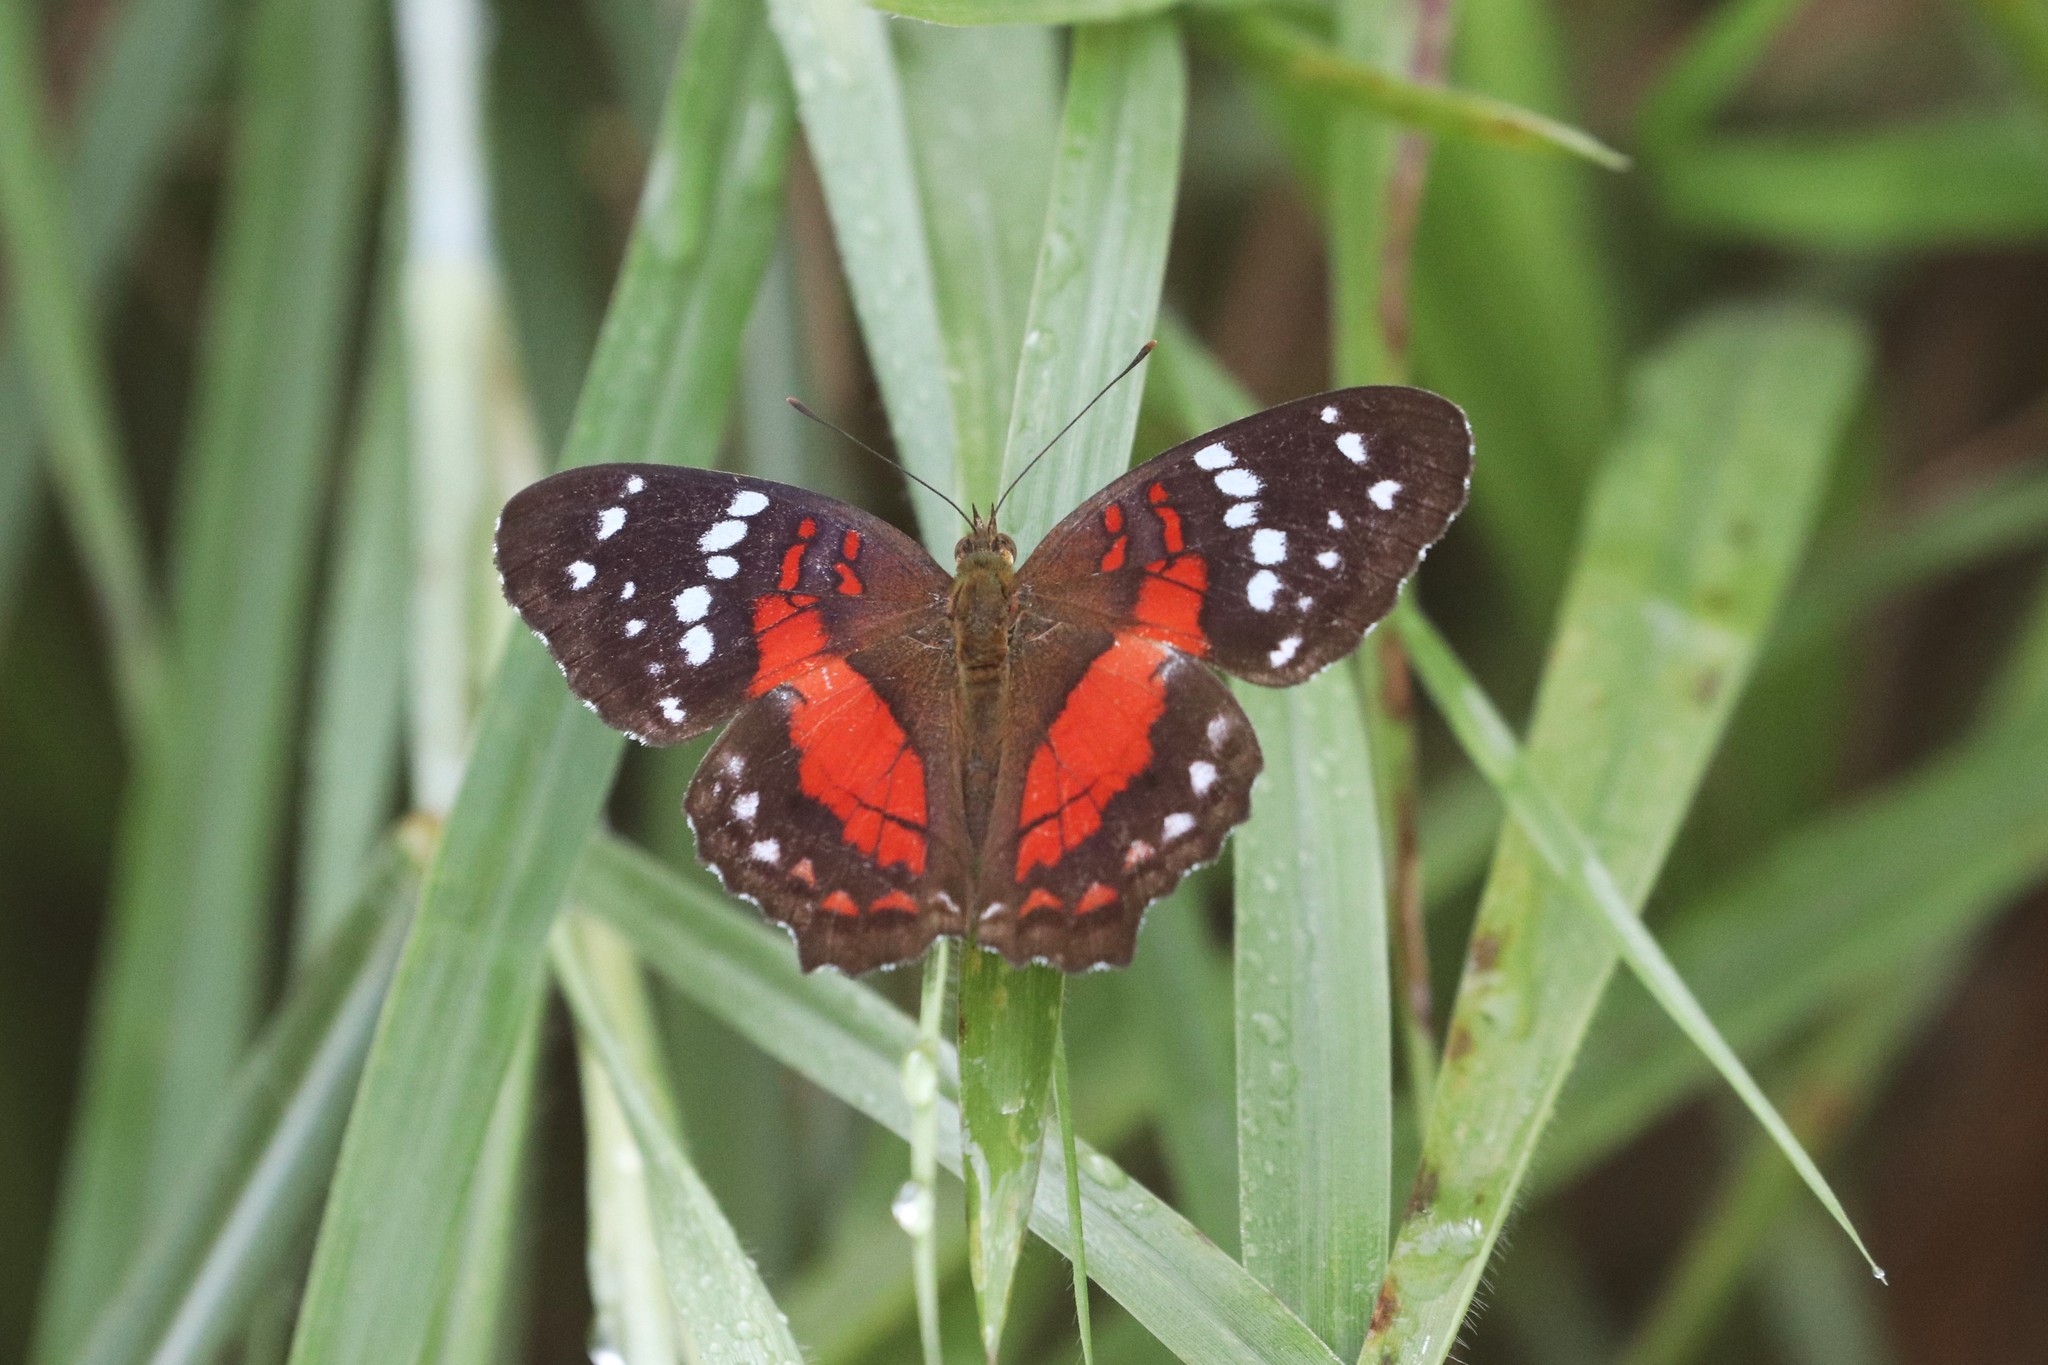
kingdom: Animalia
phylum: Arthropoda
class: Insecta
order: Lepidoptera
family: Nymphalidae
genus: Anartia
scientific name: Anartia amathea
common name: Red peacock
